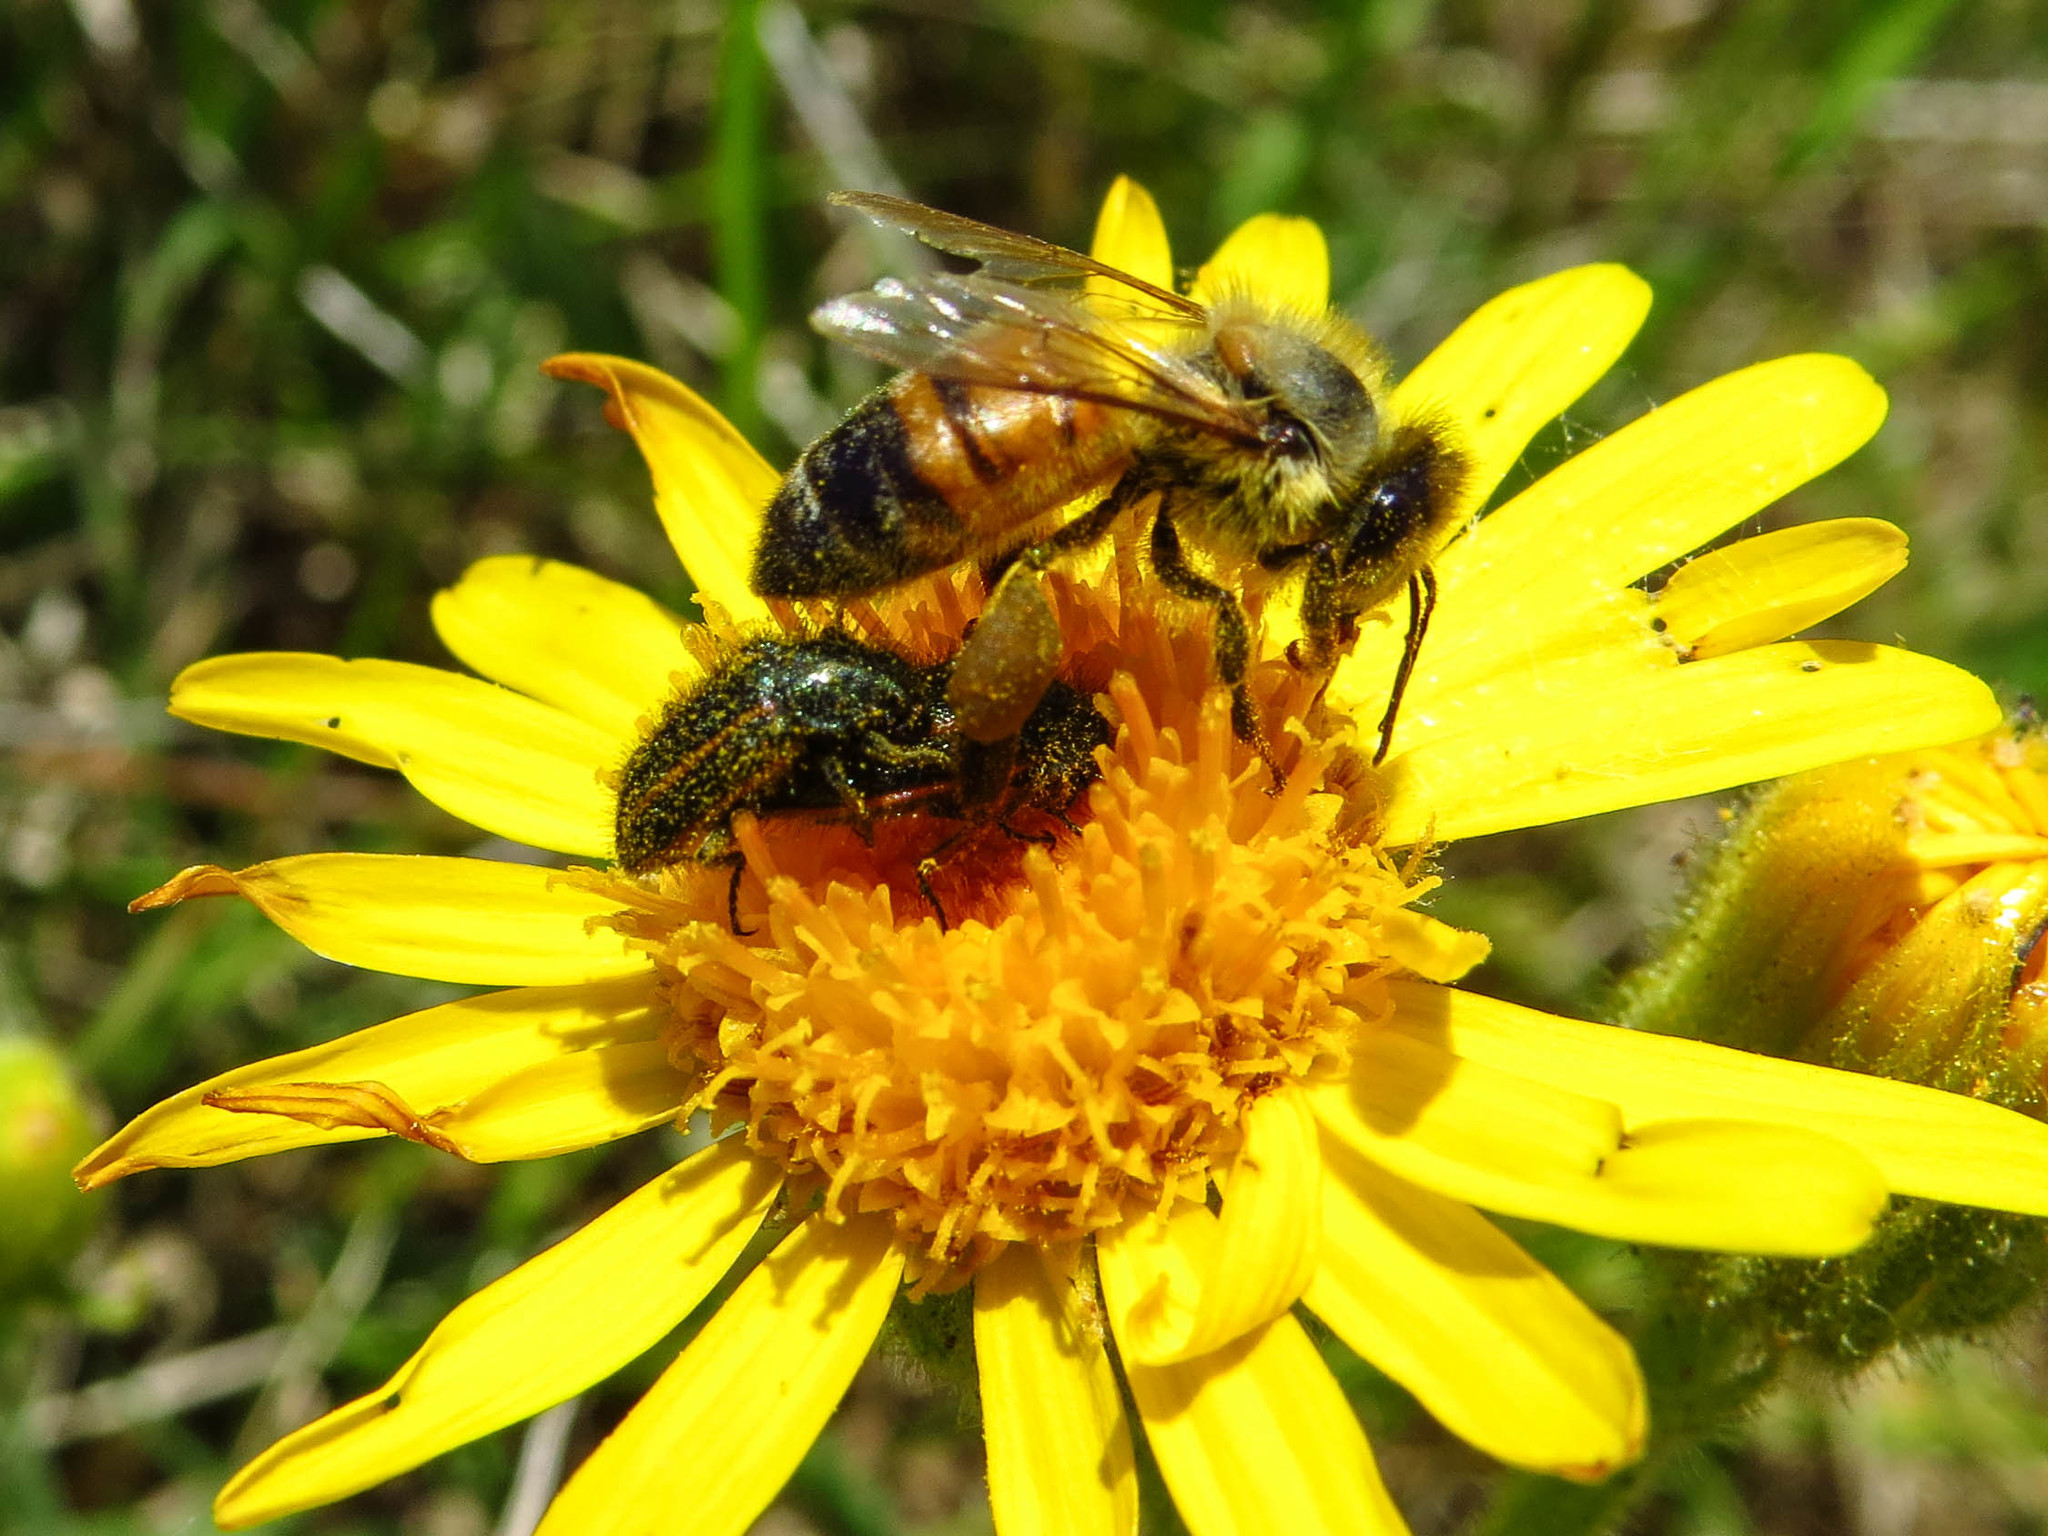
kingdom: Animalia
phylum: Arthropoda
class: Insecta
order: Hymenoptera
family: Apidae
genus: Apis
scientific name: Apis mellifera
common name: Honey bee
